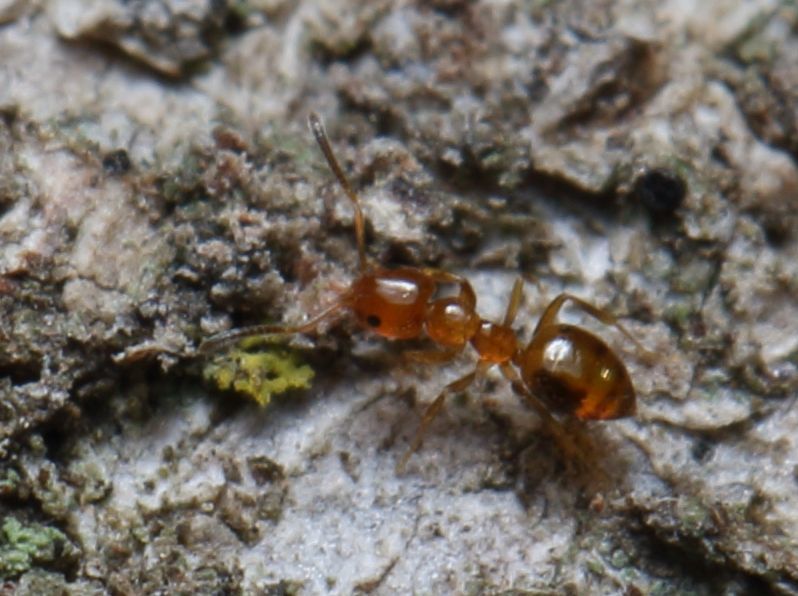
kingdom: Animalia
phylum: Arthropoda
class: Insecta
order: Hymenoptera
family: Formicidae
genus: Plagiolepis
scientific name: Plagiolepis brunni
